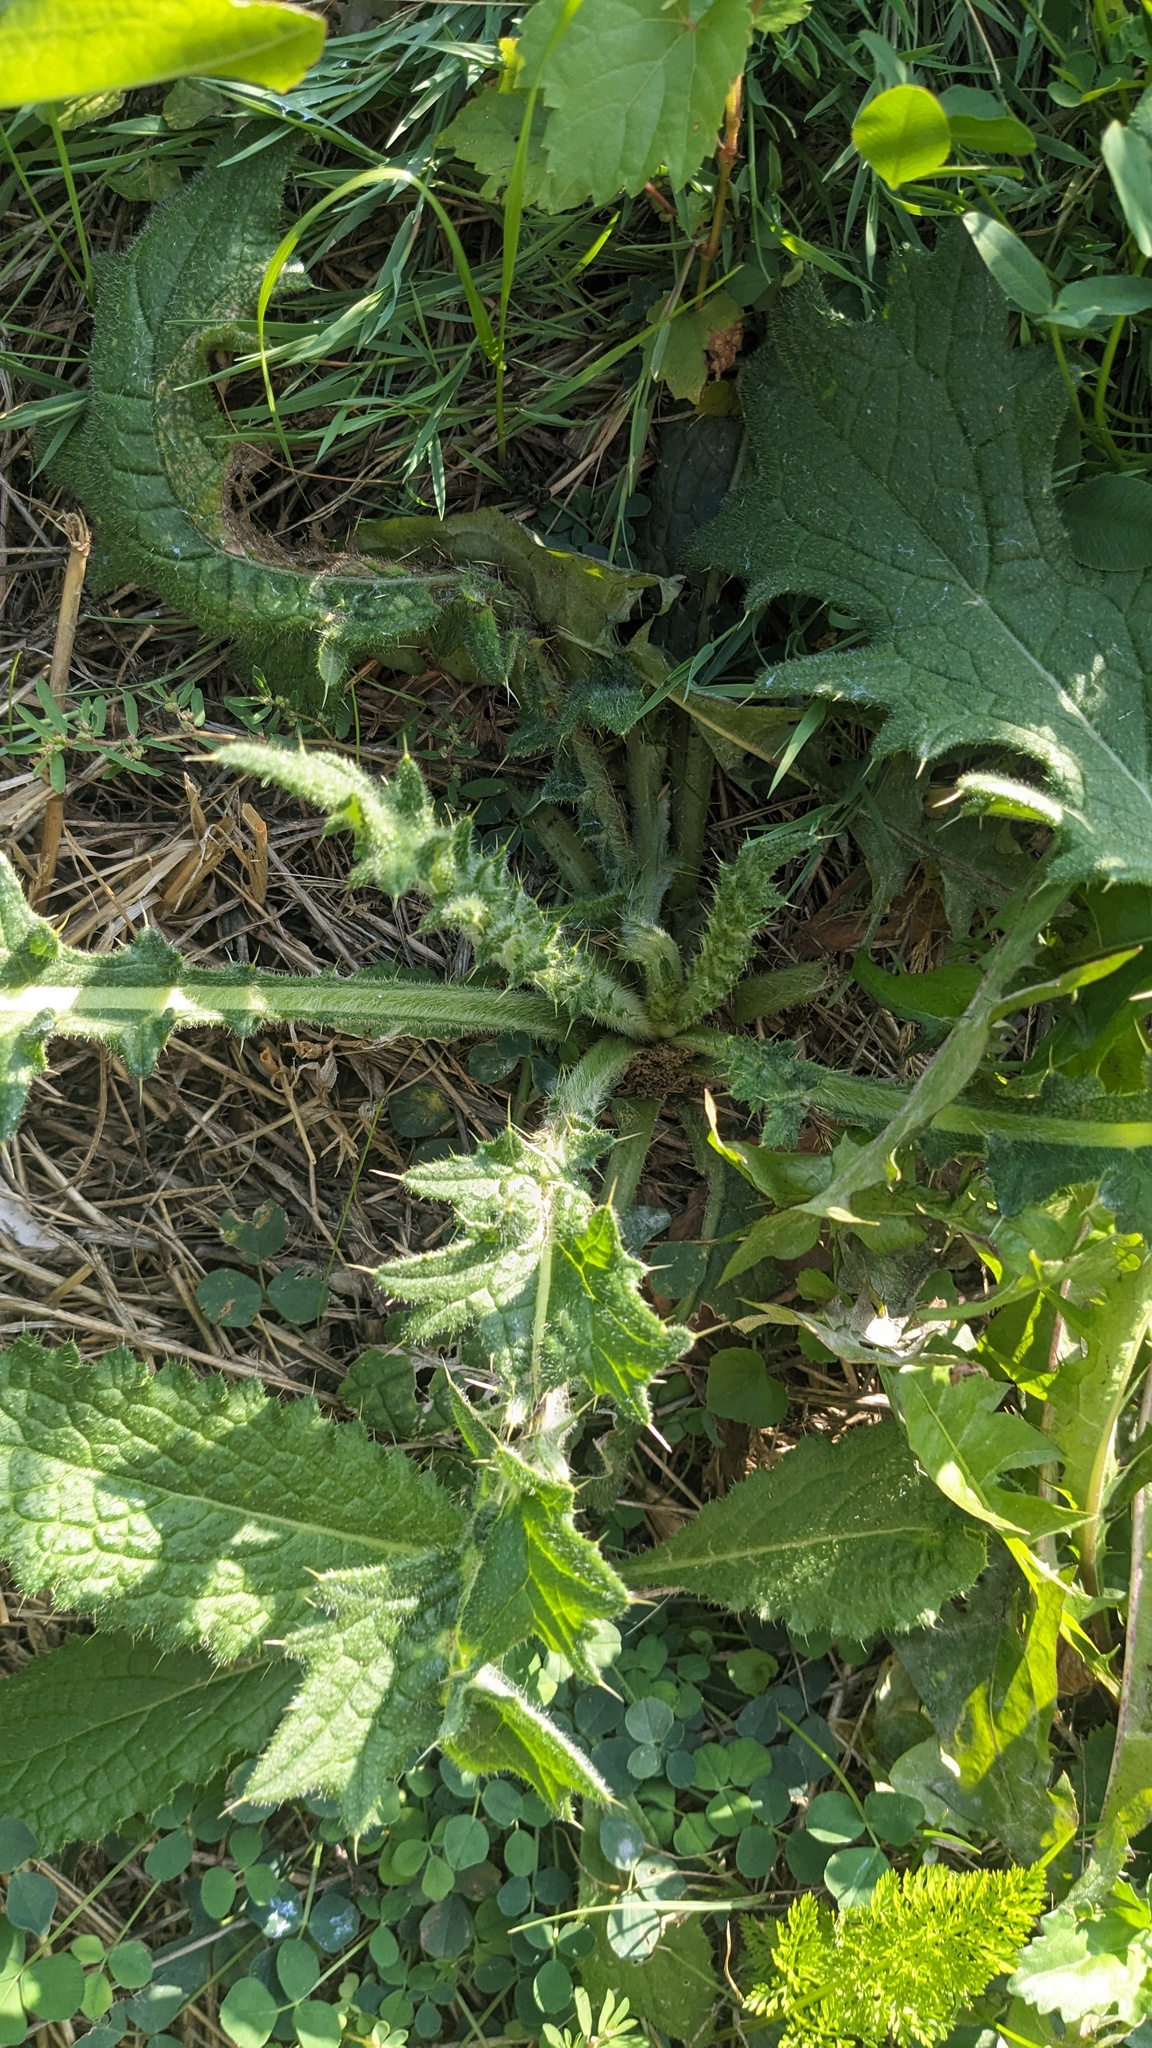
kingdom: Plantae
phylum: Tracheophyta
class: Magnoliopsida
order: Asterales
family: Asteraceae
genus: Cirsium
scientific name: Cirsium vulgare
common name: Bull thistle
